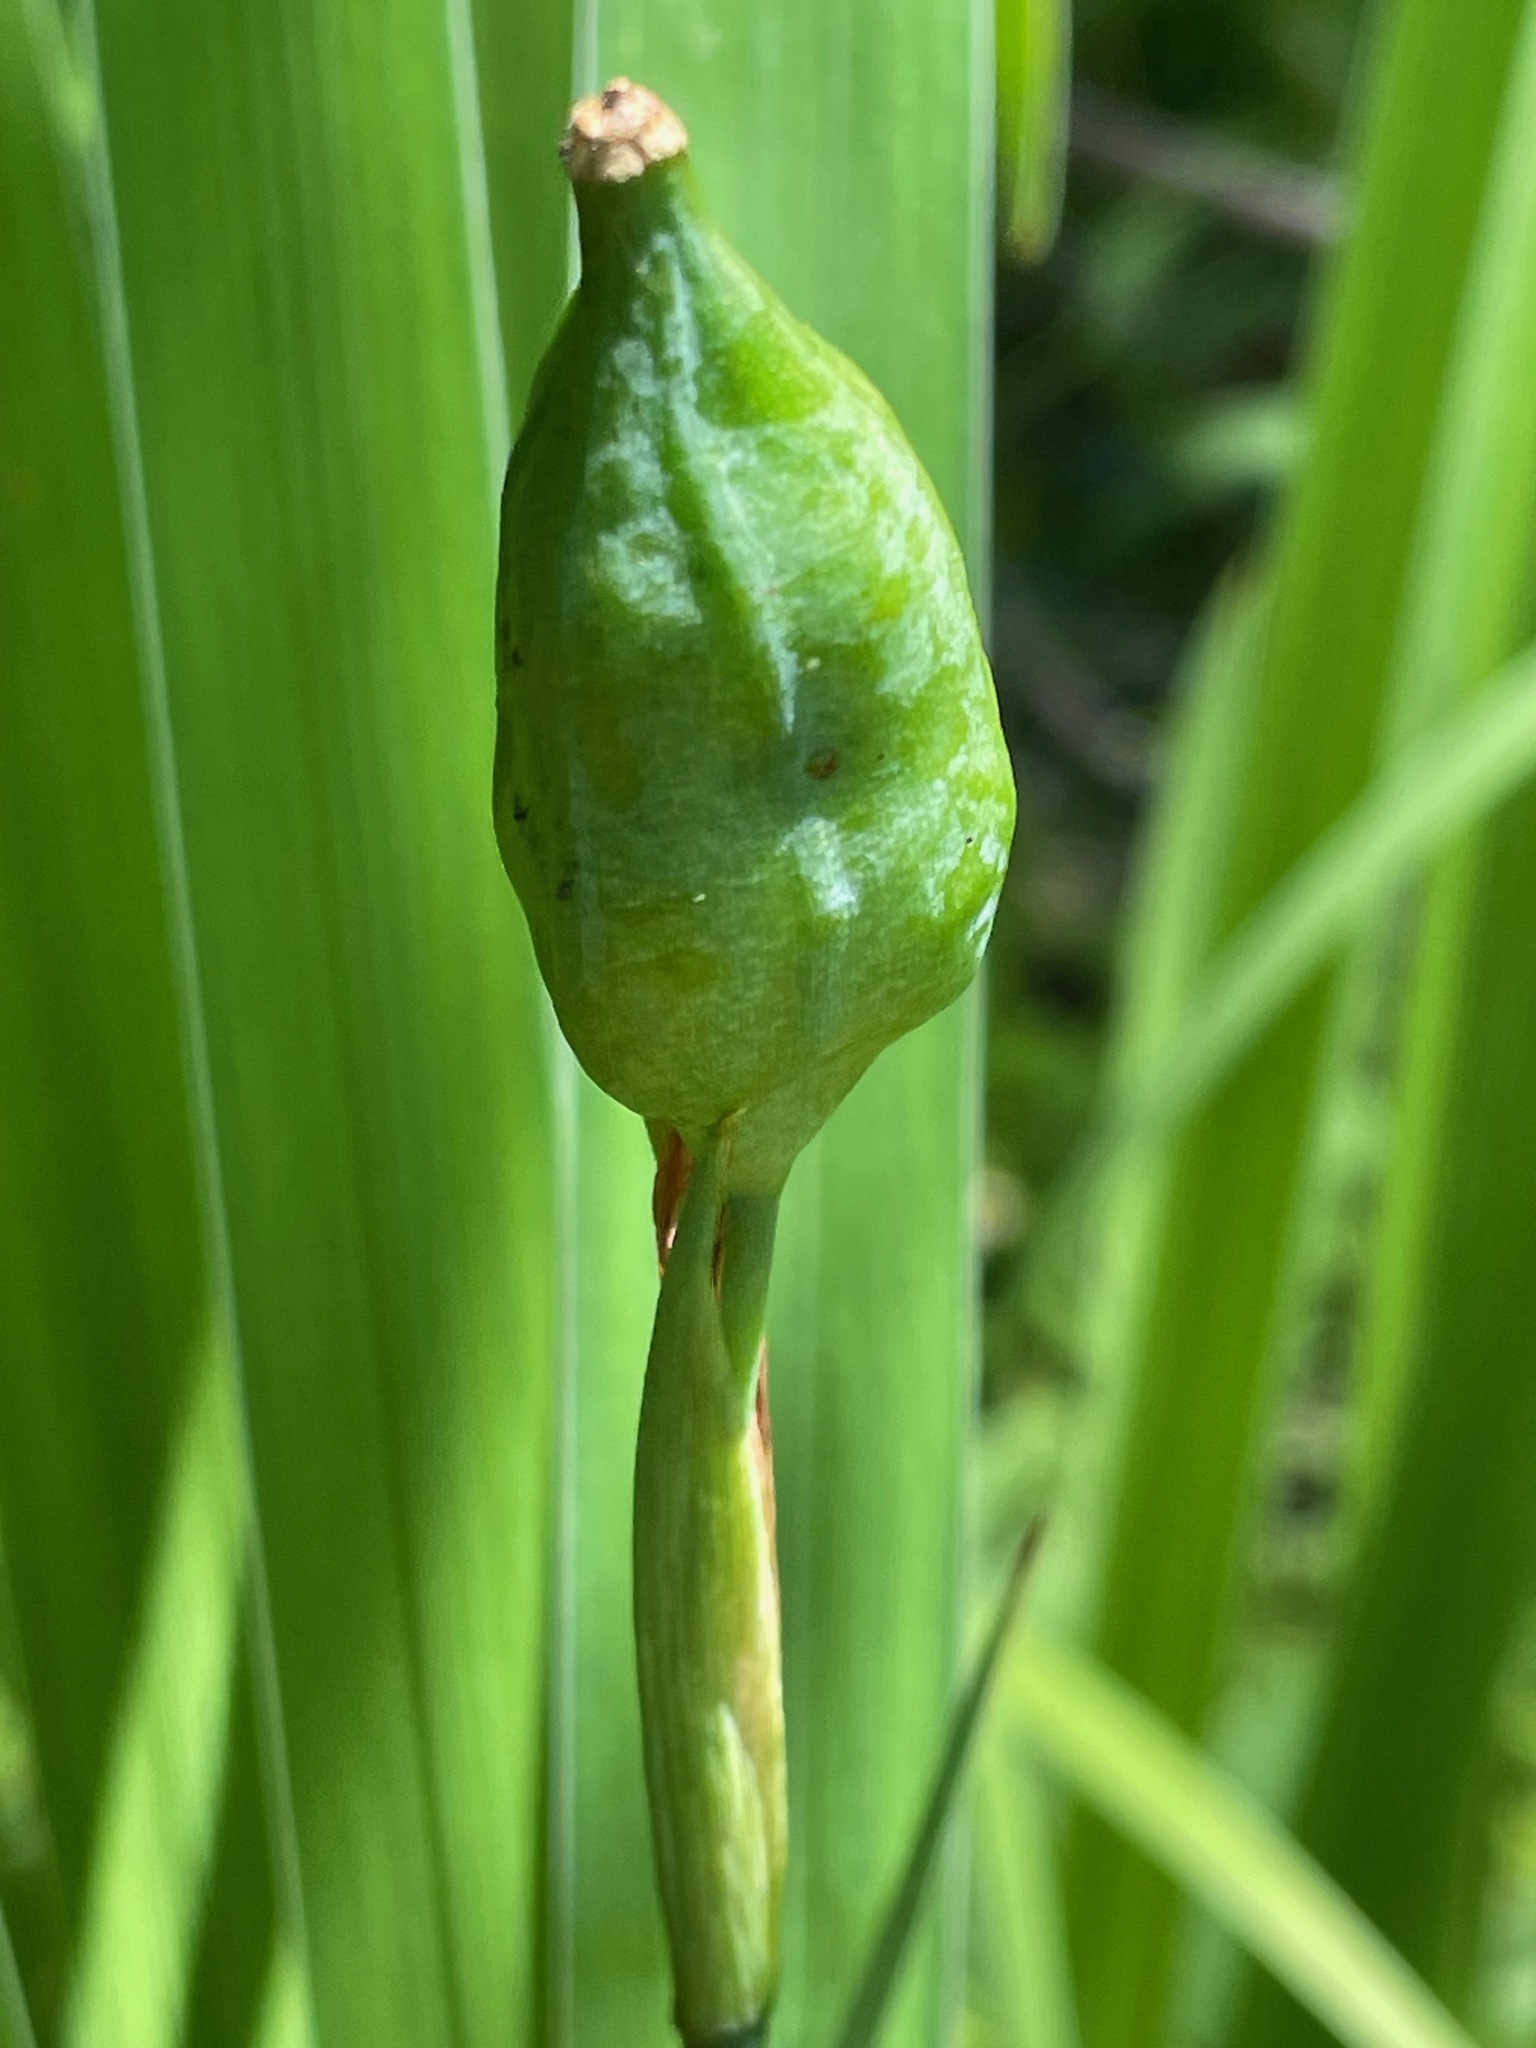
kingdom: Plantae
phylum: Tracheophyta
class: Liliopsida
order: Asparagales
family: Iridaceae
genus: Iris
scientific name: Iris versicolor
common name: Purple iris
